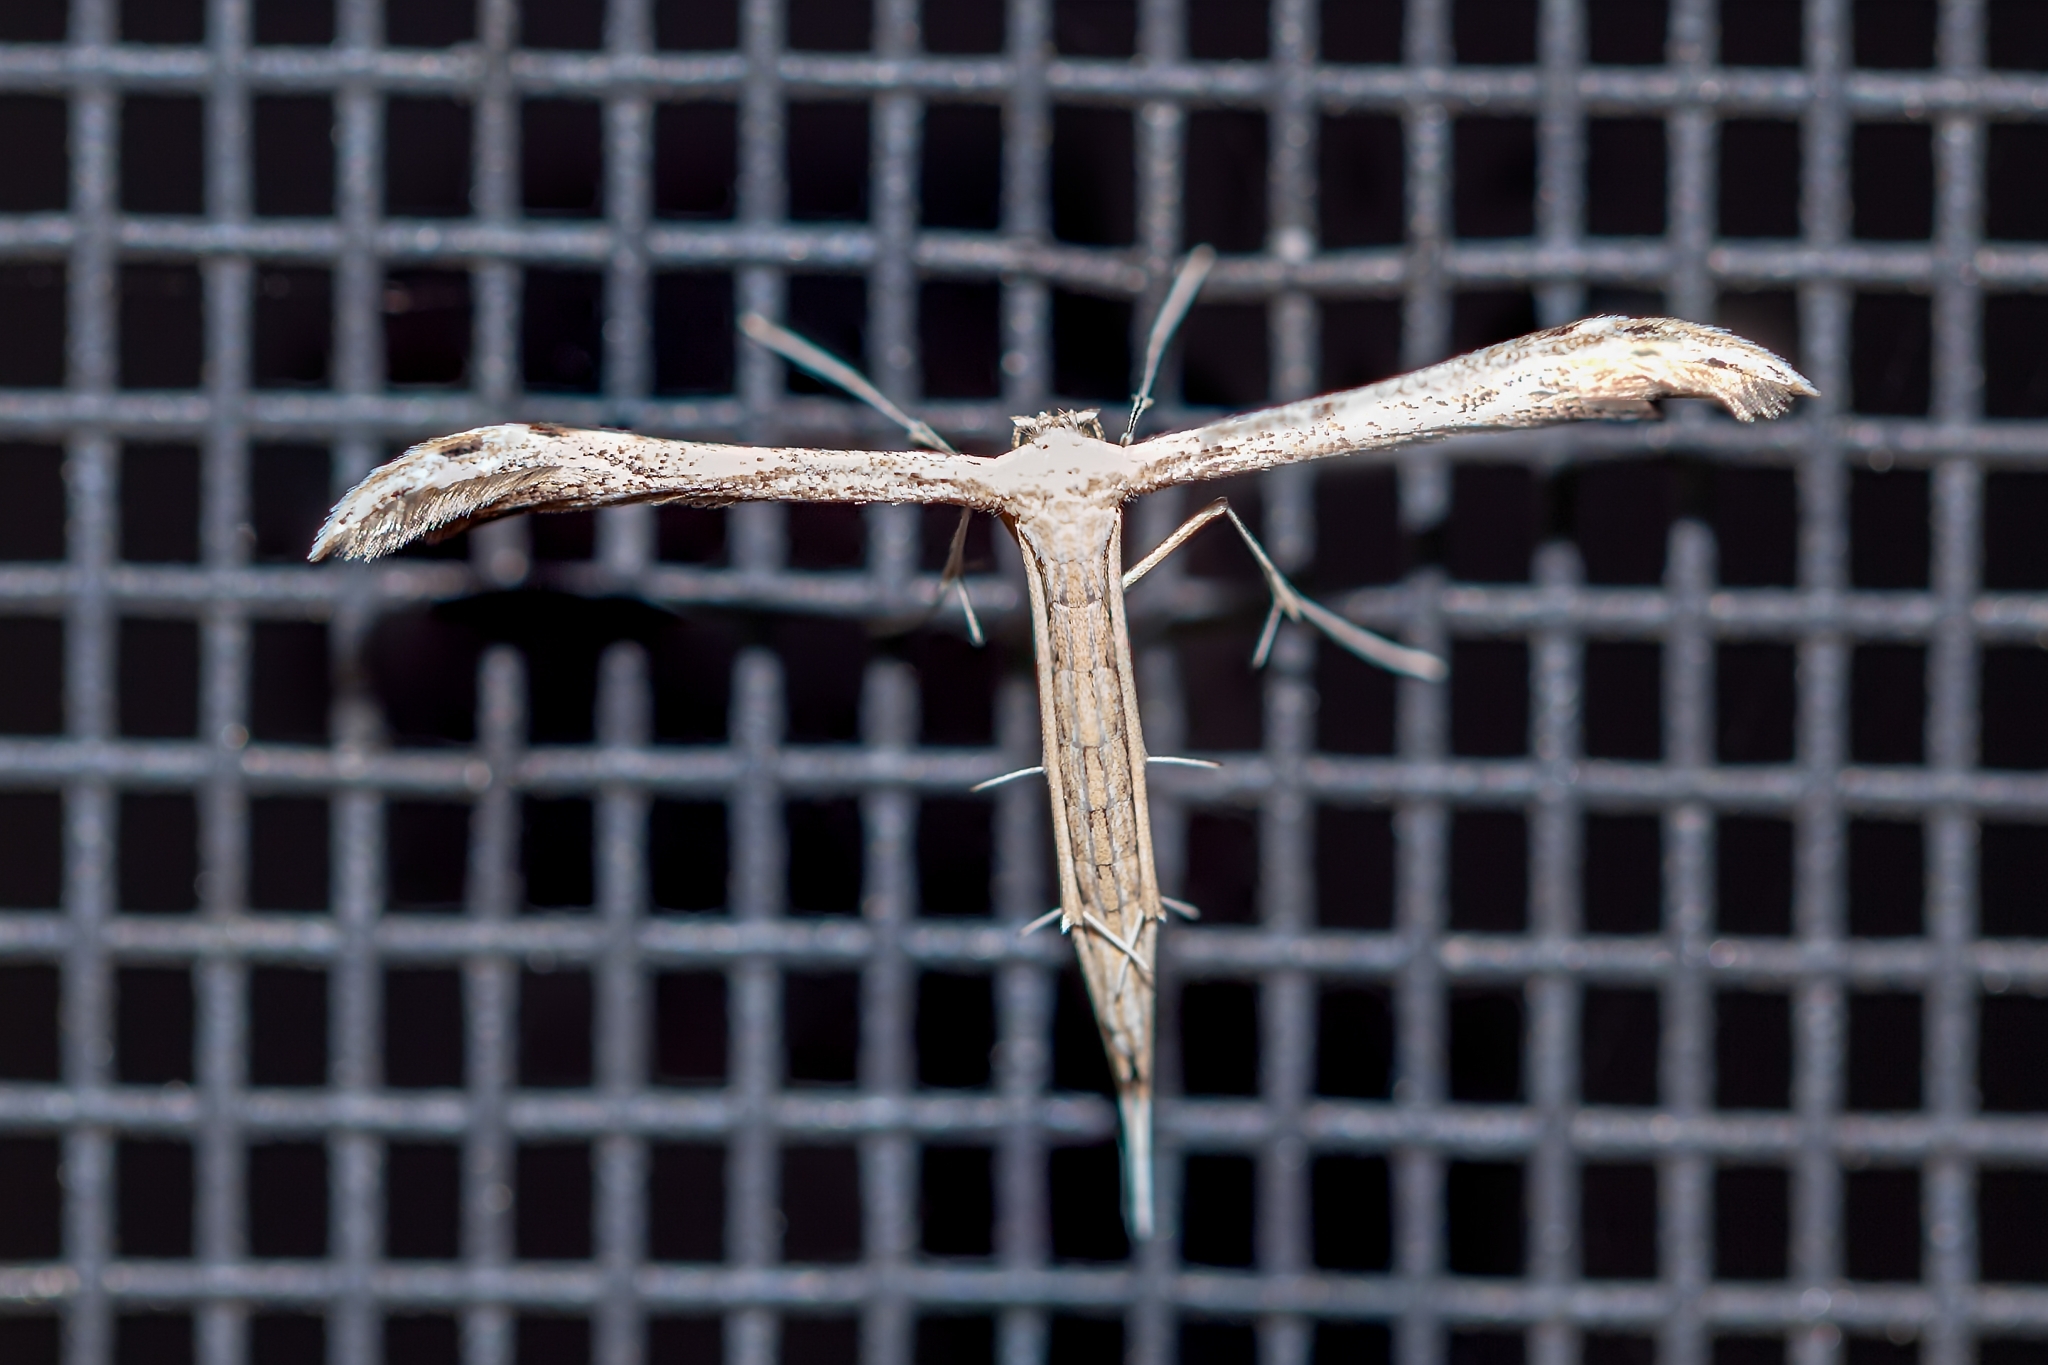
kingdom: Animalia
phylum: Arthropoda
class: Insecta
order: Lepidoptera
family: Pterophoridae
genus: Pselnophorus
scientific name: Pselnophorus belfragei
